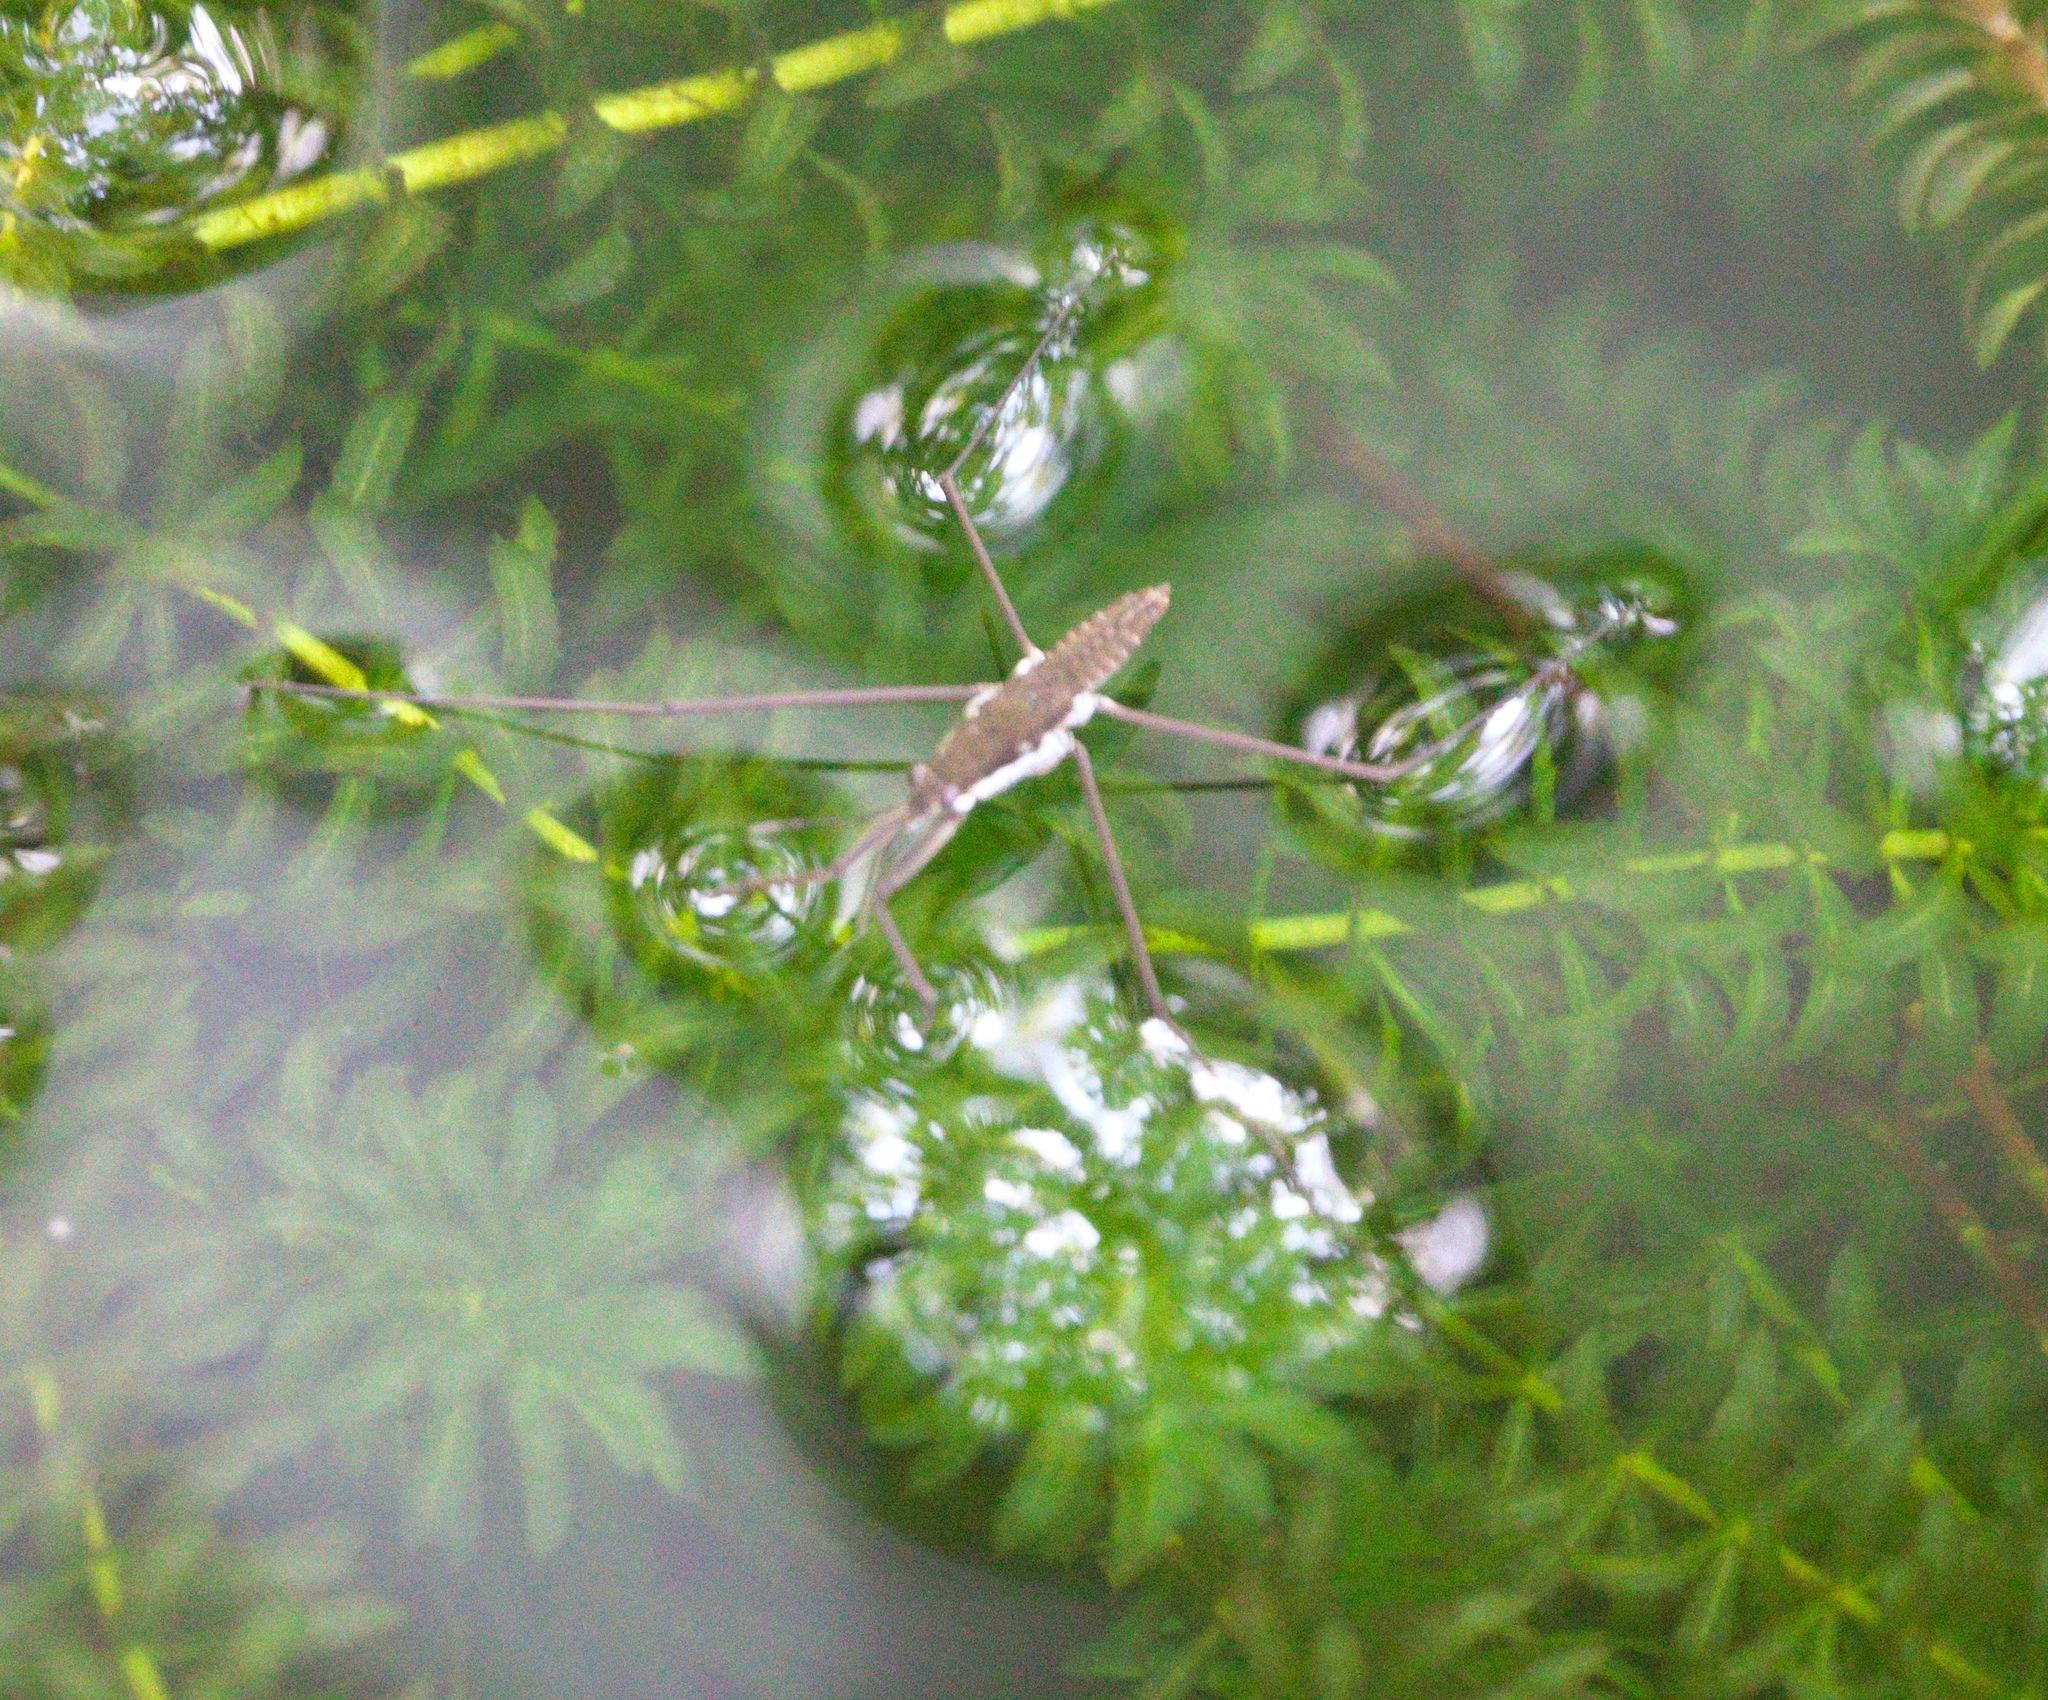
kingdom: Animalia
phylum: Arthropoda
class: Insecta
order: Hemiptera
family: Gerridae
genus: Aquarius
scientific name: Aquarius remigis
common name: Common water strider
